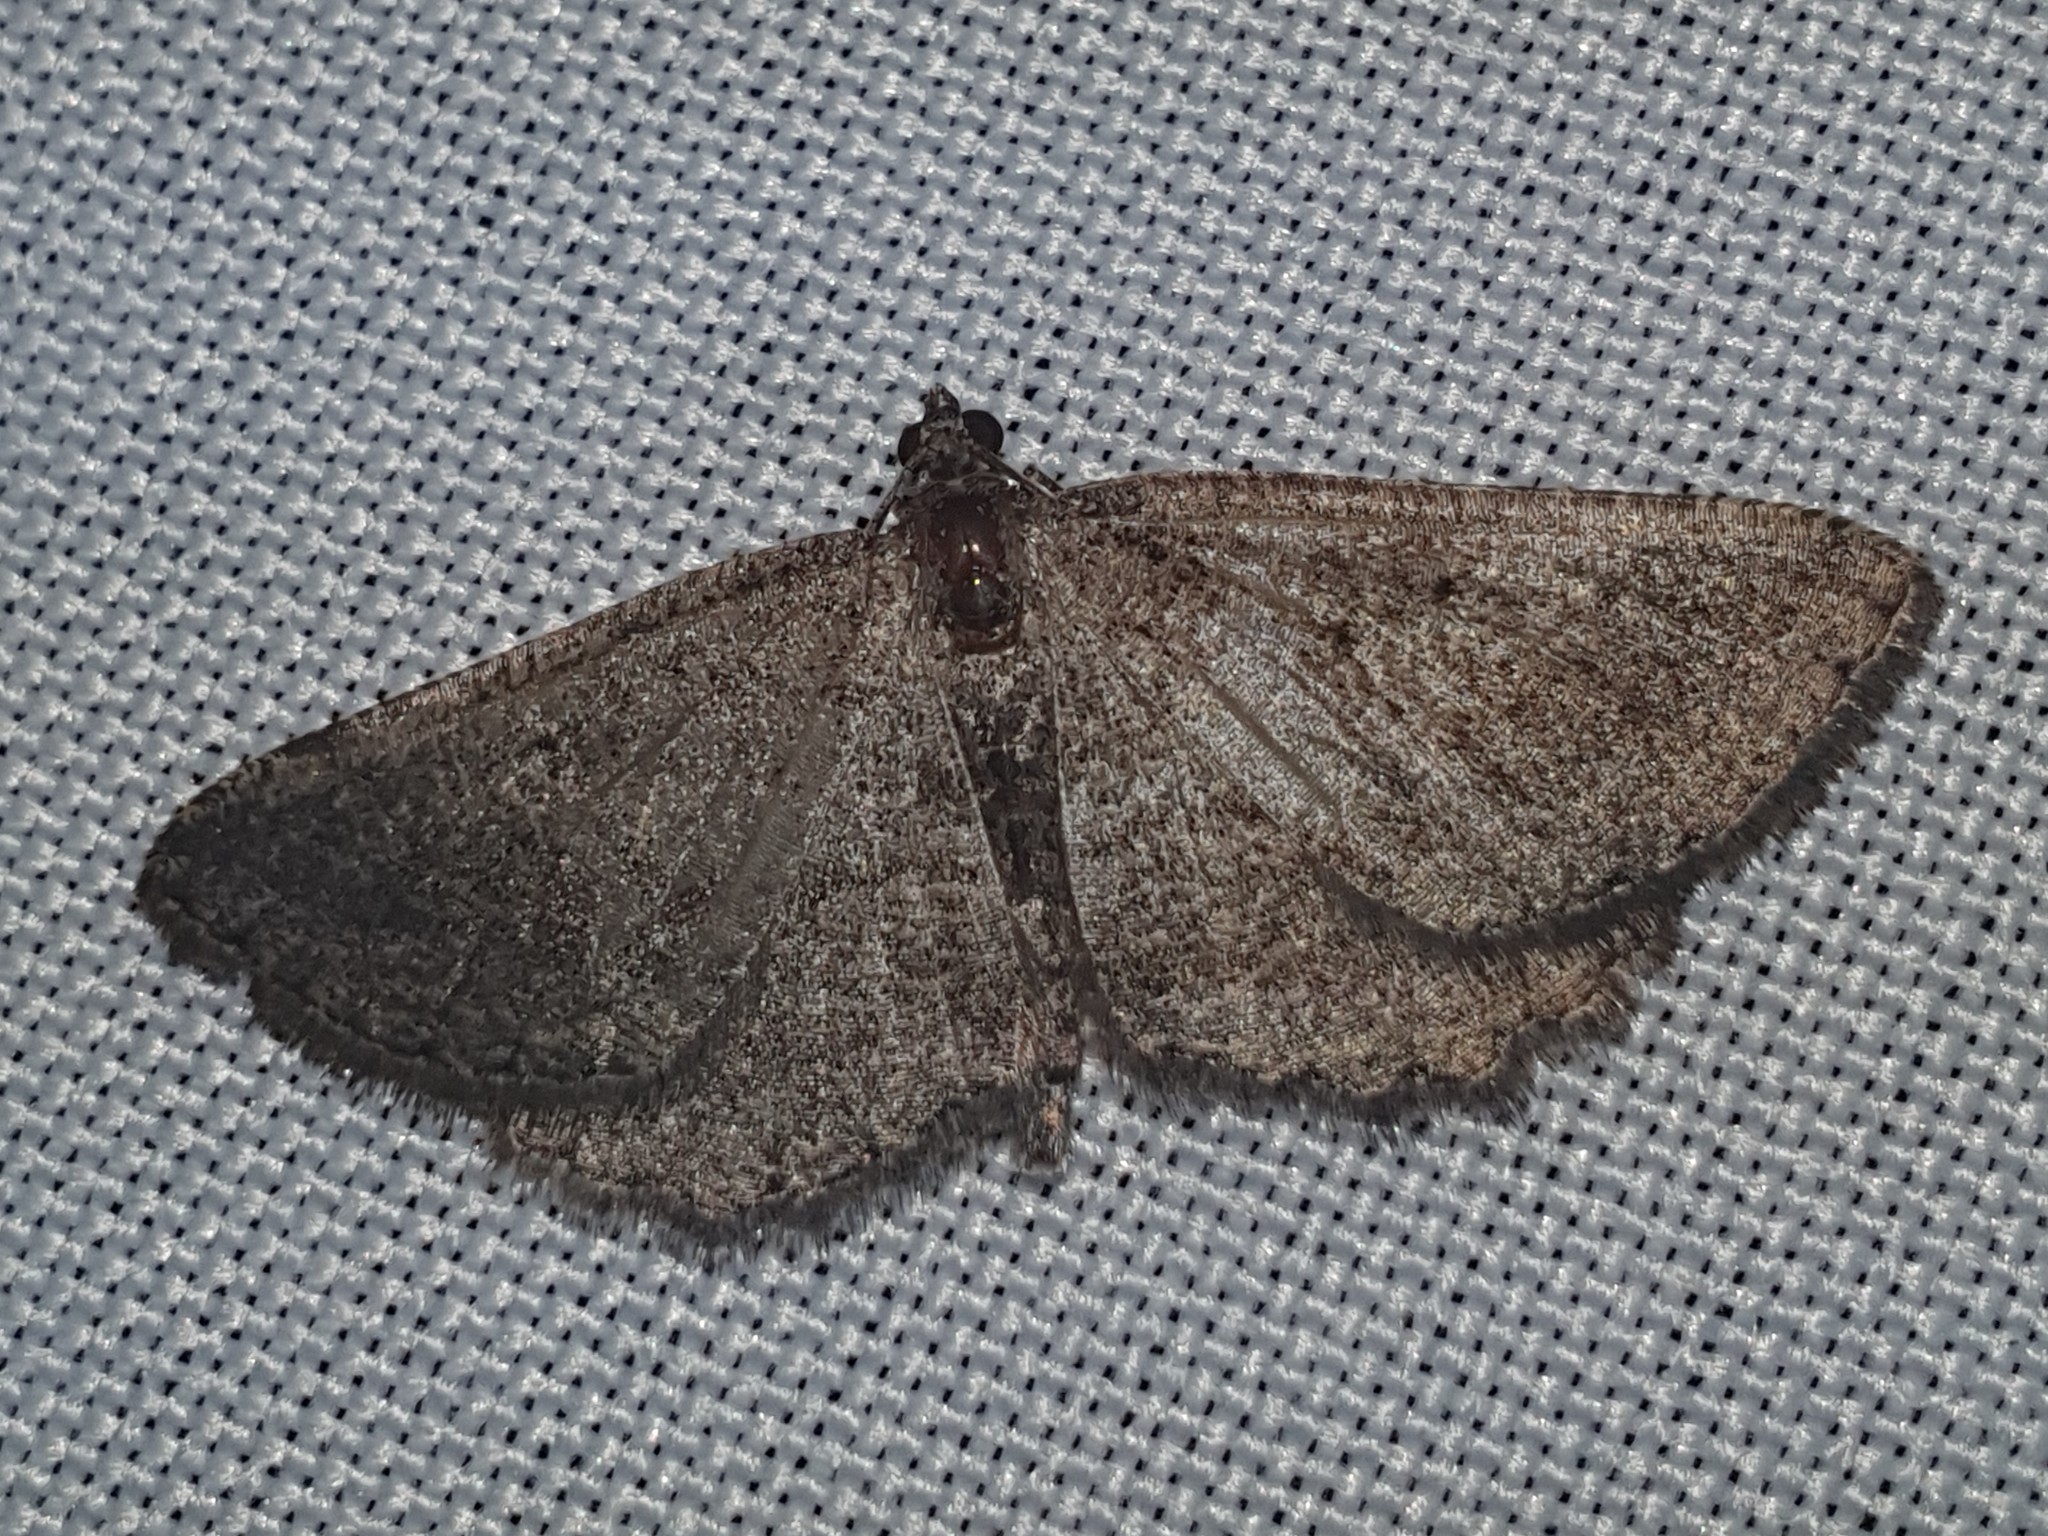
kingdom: Animalia
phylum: Arthropoda
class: Insecta
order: Lepidoptera
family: Geometridae
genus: Rhoptria
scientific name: Rhoptria asperaria
